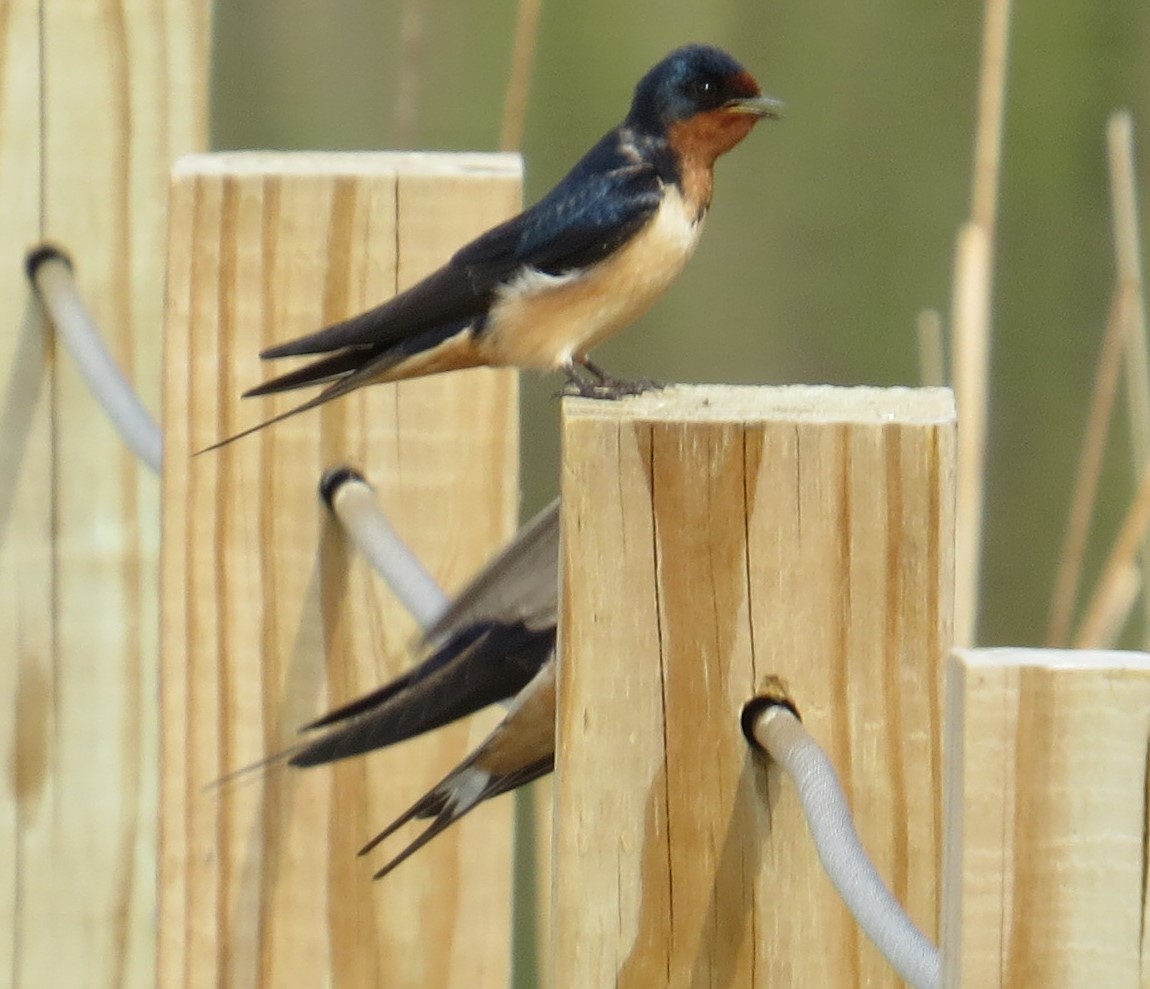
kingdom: Animalia
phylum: Chordata
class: Aves
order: Passeriformes
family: Hirundinidae
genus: Hirundo
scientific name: Hirundo rustica
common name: Barn swallow
